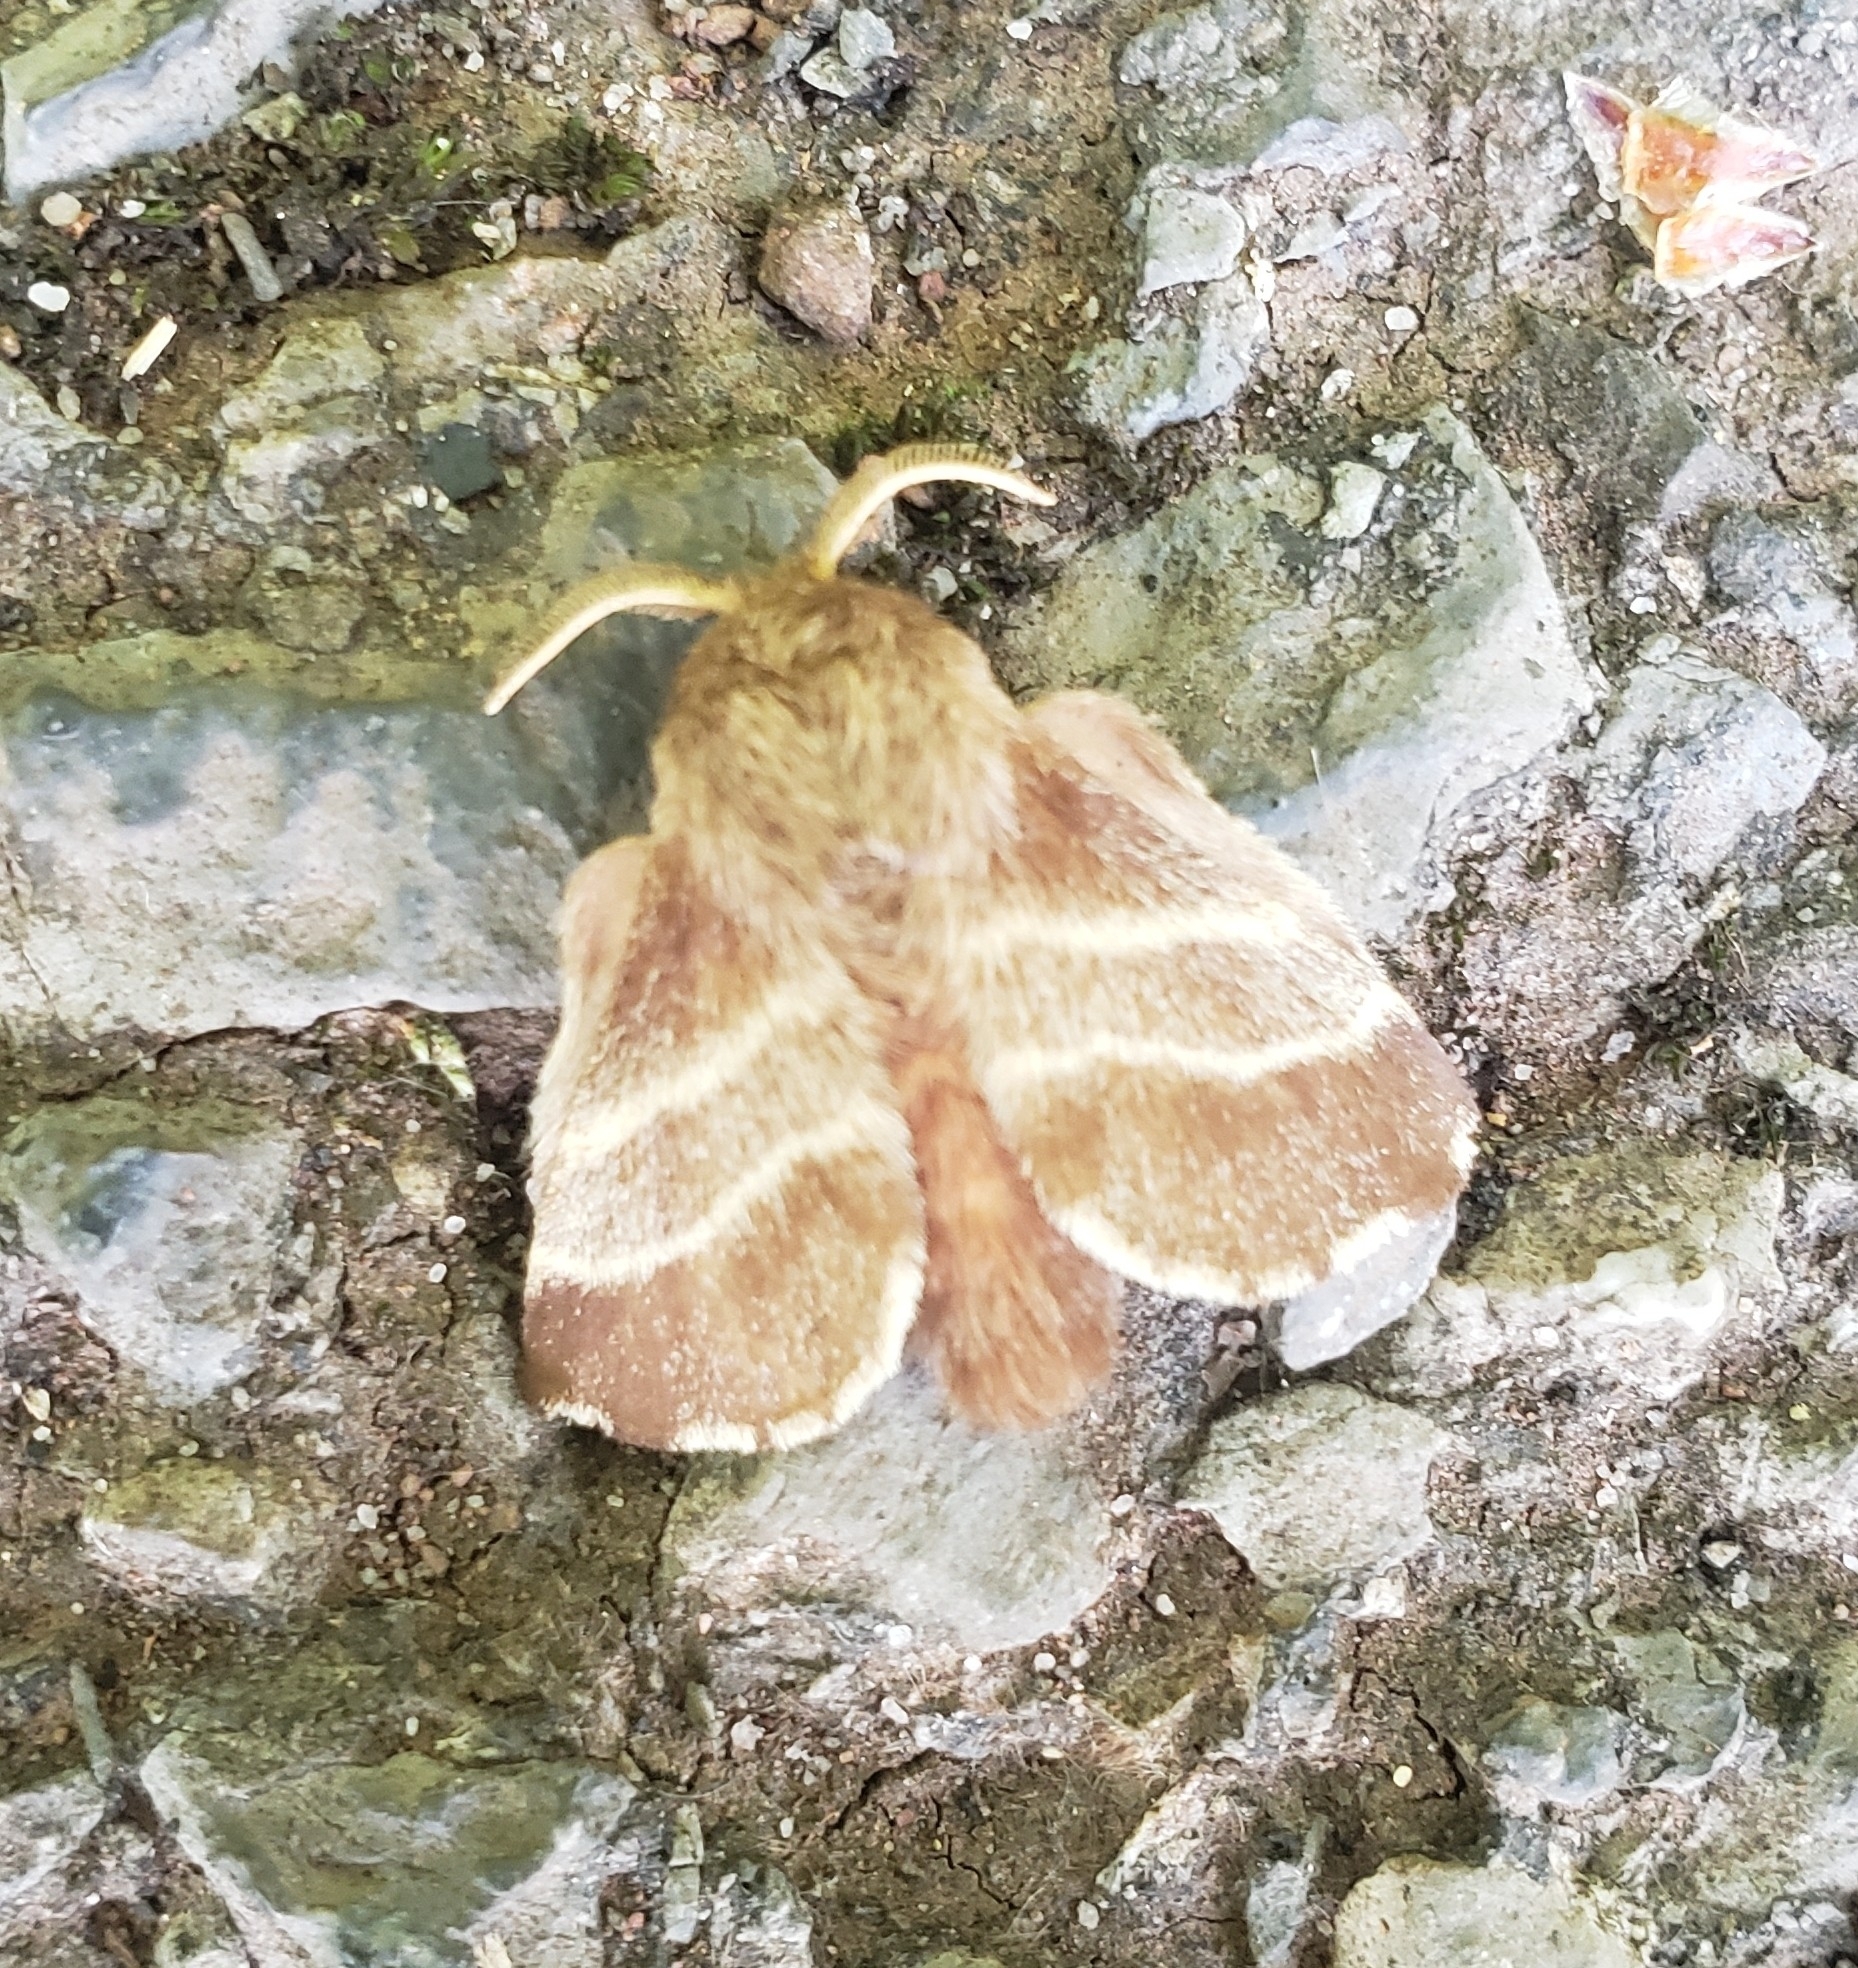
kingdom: Animalia
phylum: Arthropoda
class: Insecta
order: Lepidoptera
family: Lasiocampidae
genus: Malacosoma
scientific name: Malacosoma americana
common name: Eastern tent caterpillar moth
